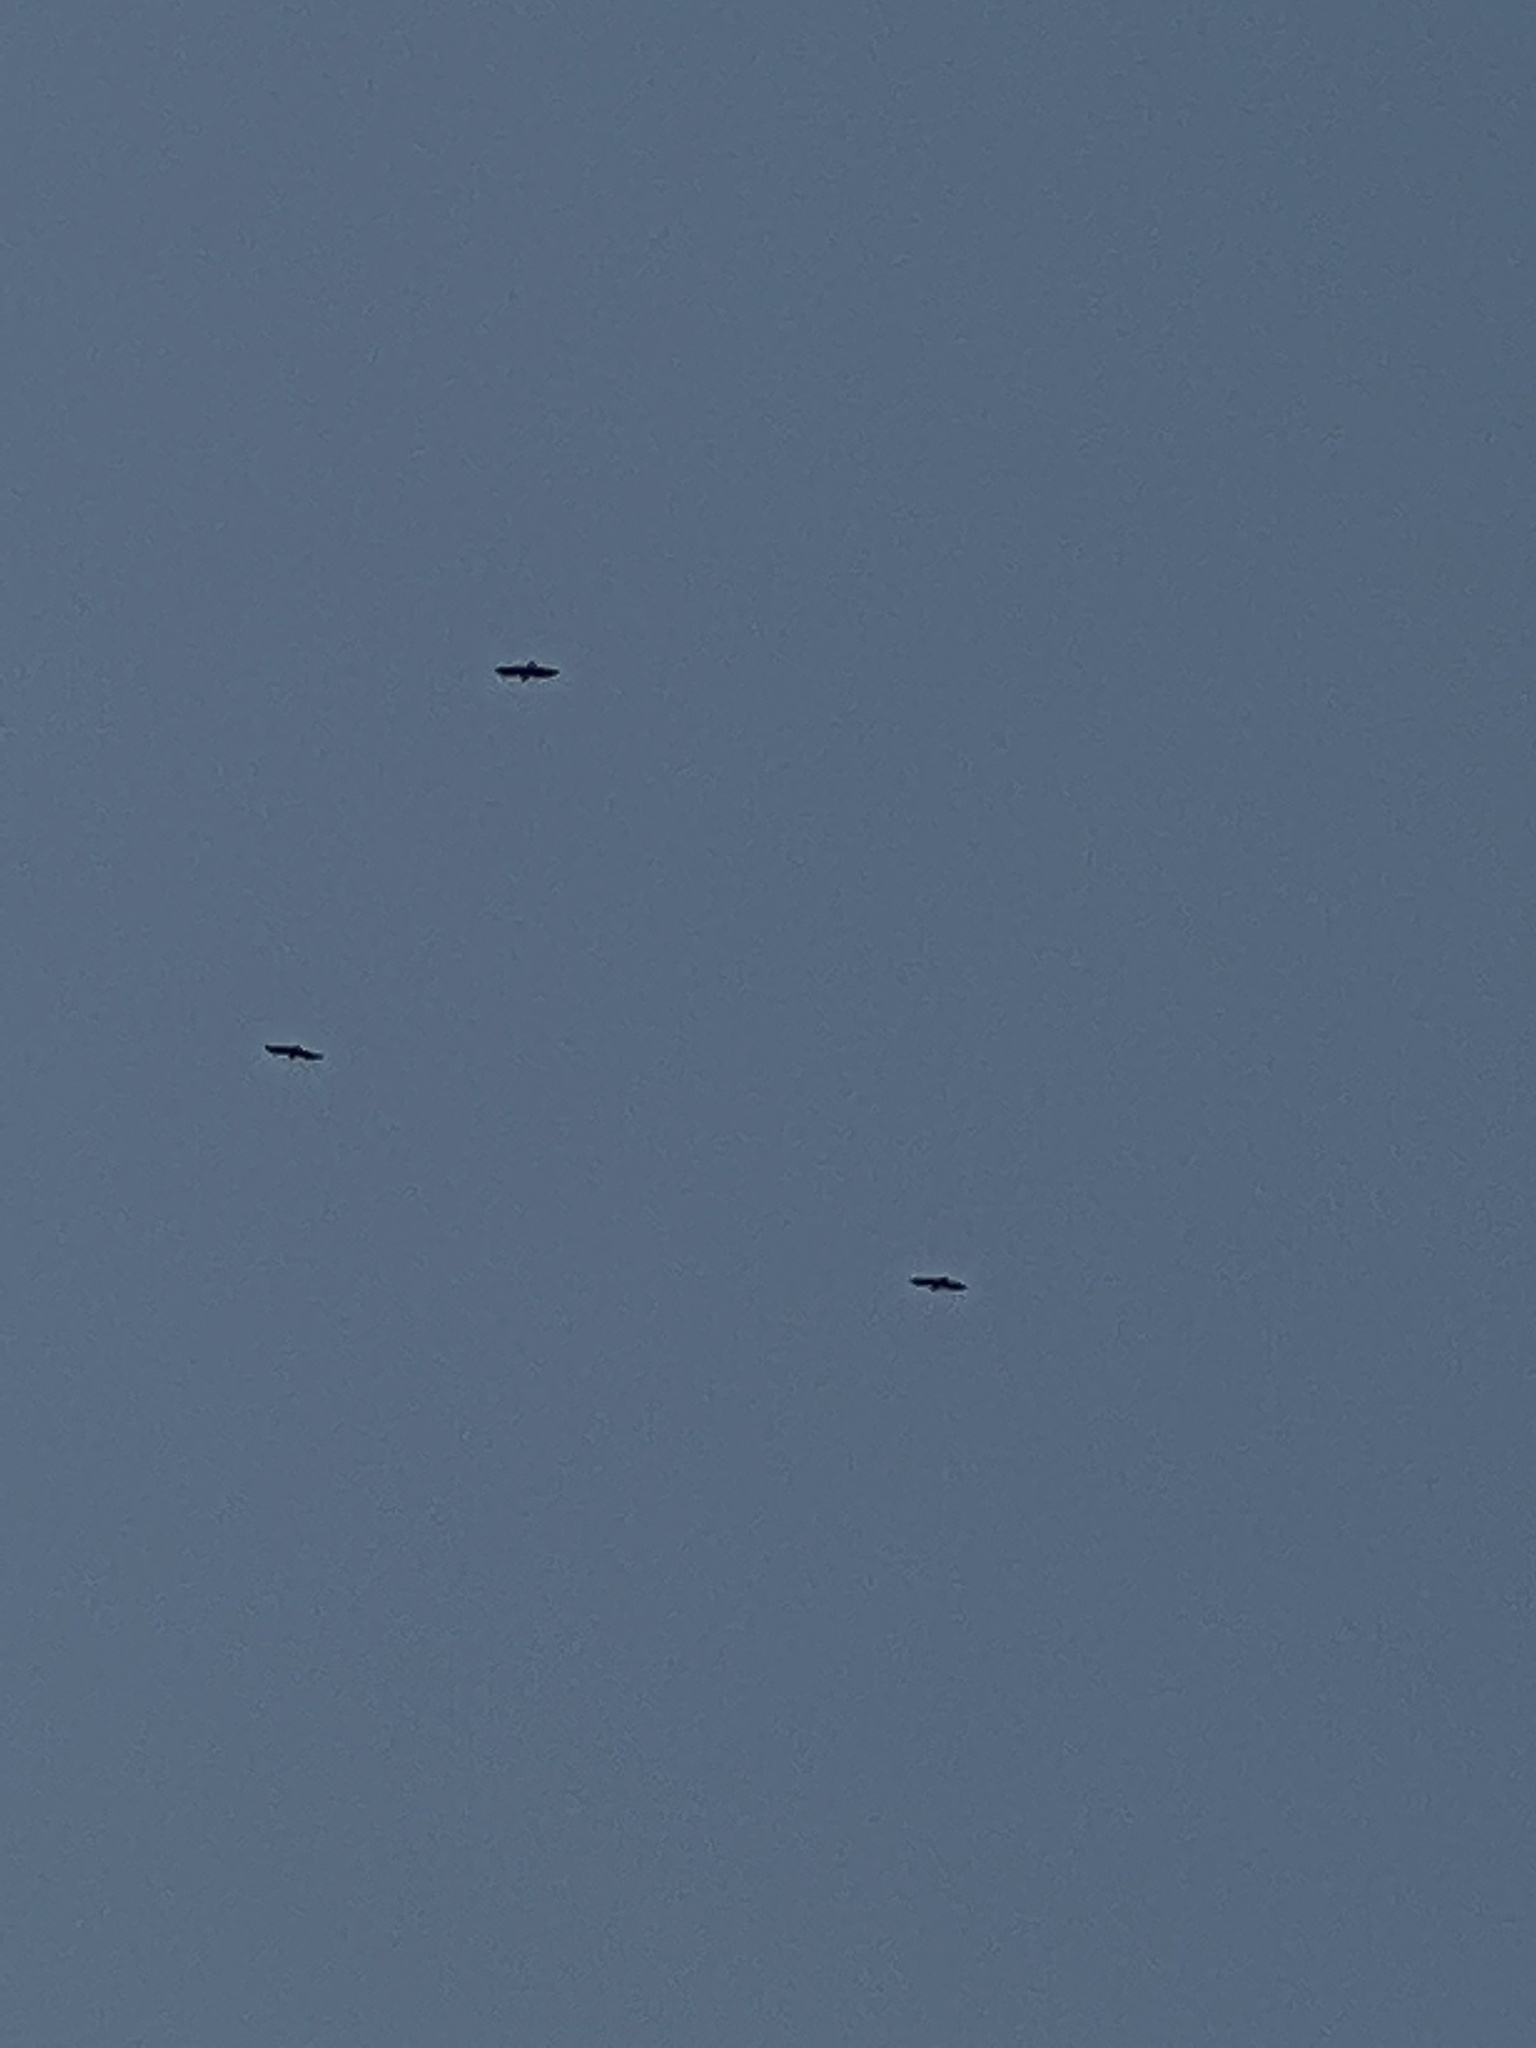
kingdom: Animalia
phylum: Chordata
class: Aves
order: Passeriformes
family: Corvidae
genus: Corvus
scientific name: Corvus corax
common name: Common raven
